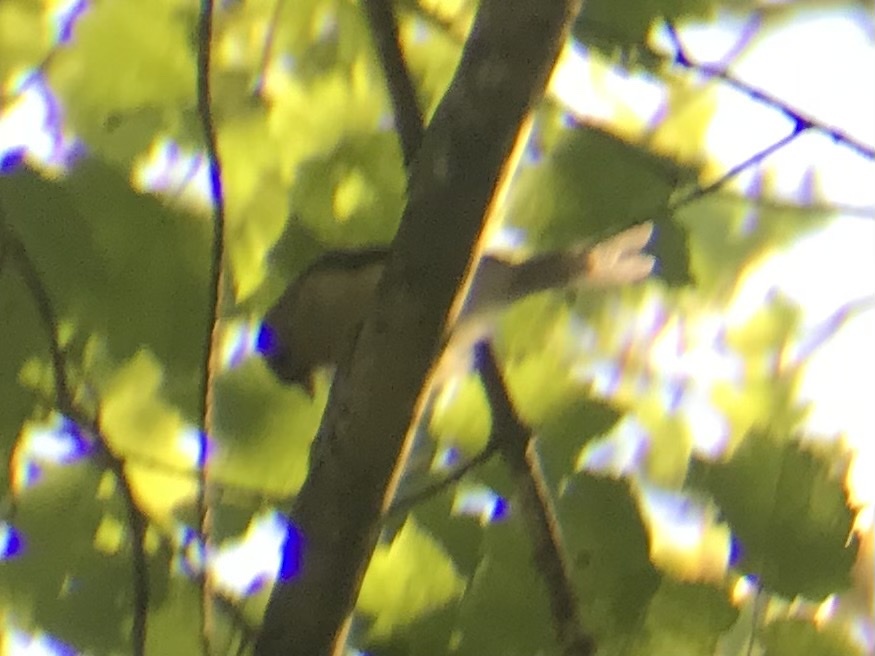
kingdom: Animalia
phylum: Chordata
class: Aves
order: Passeriformes
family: Paridae
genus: Baeolophus
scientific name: Baeolophus bicolor
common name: Tufted titmouse
